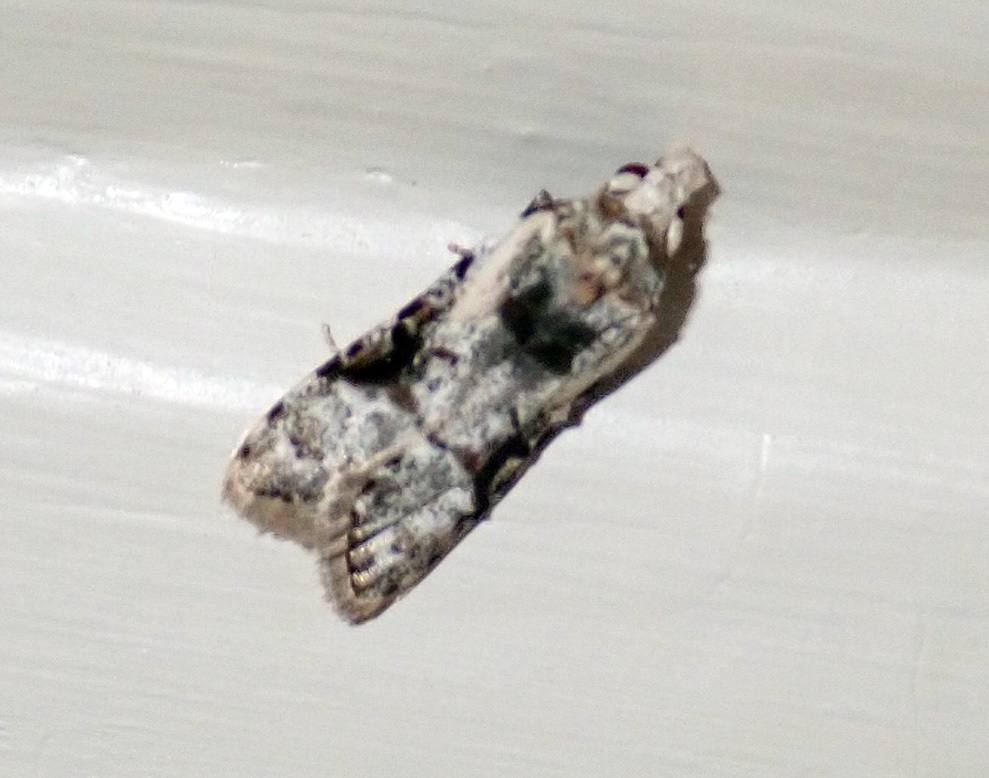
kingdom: Animalia
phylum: Arthropoda
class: Insecta
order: Lepidoptera
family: Carposinidae
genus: Coscinoptycha
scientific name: Coscinoptycha improbana
